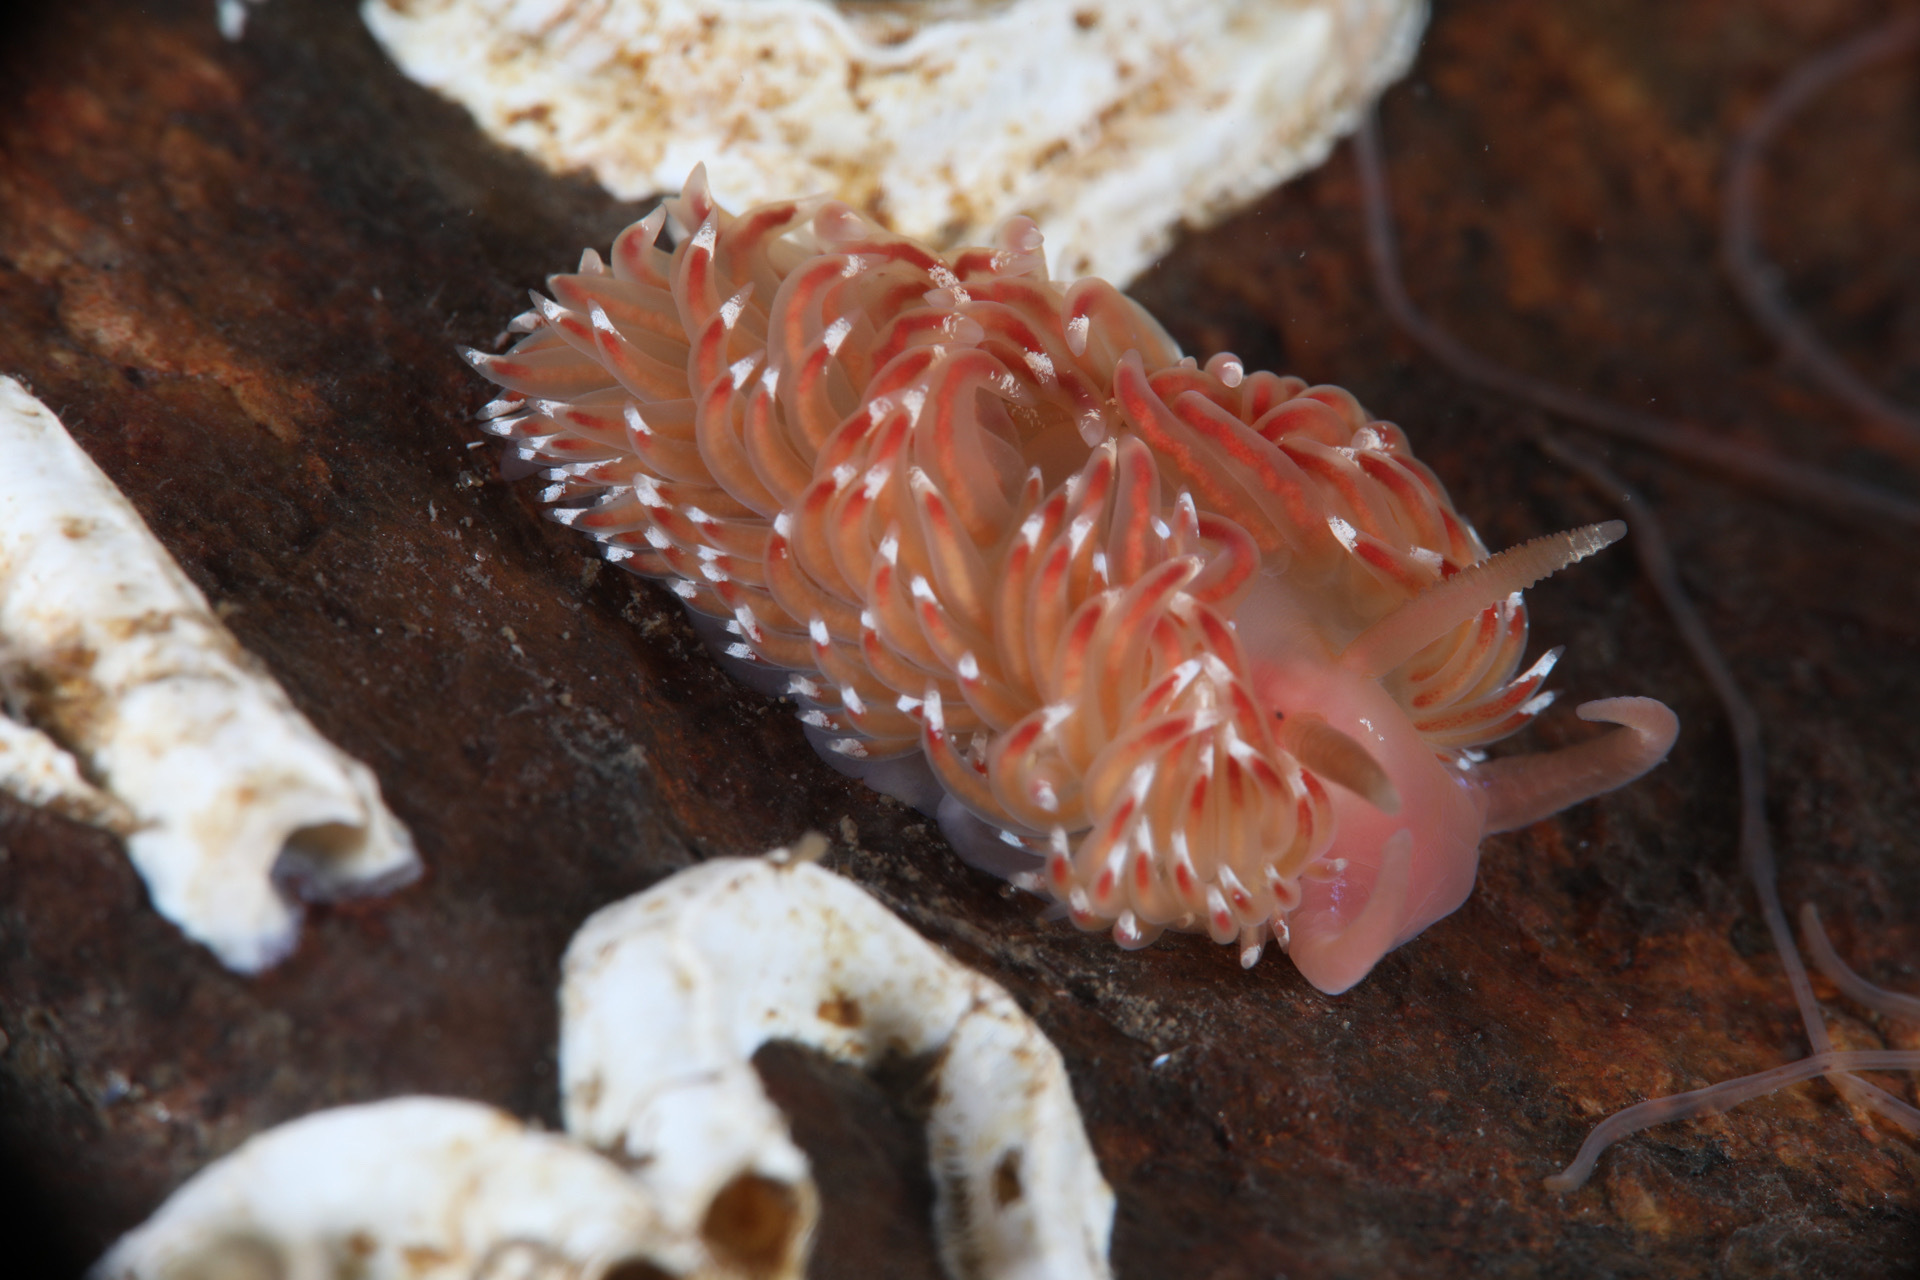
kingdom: Animalia
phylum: Mollusca
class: Gastropoda
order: Nudibranchia
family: Facelinidae
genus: Facelina
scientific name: Facelina bostoniensis
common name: Boston facelina
